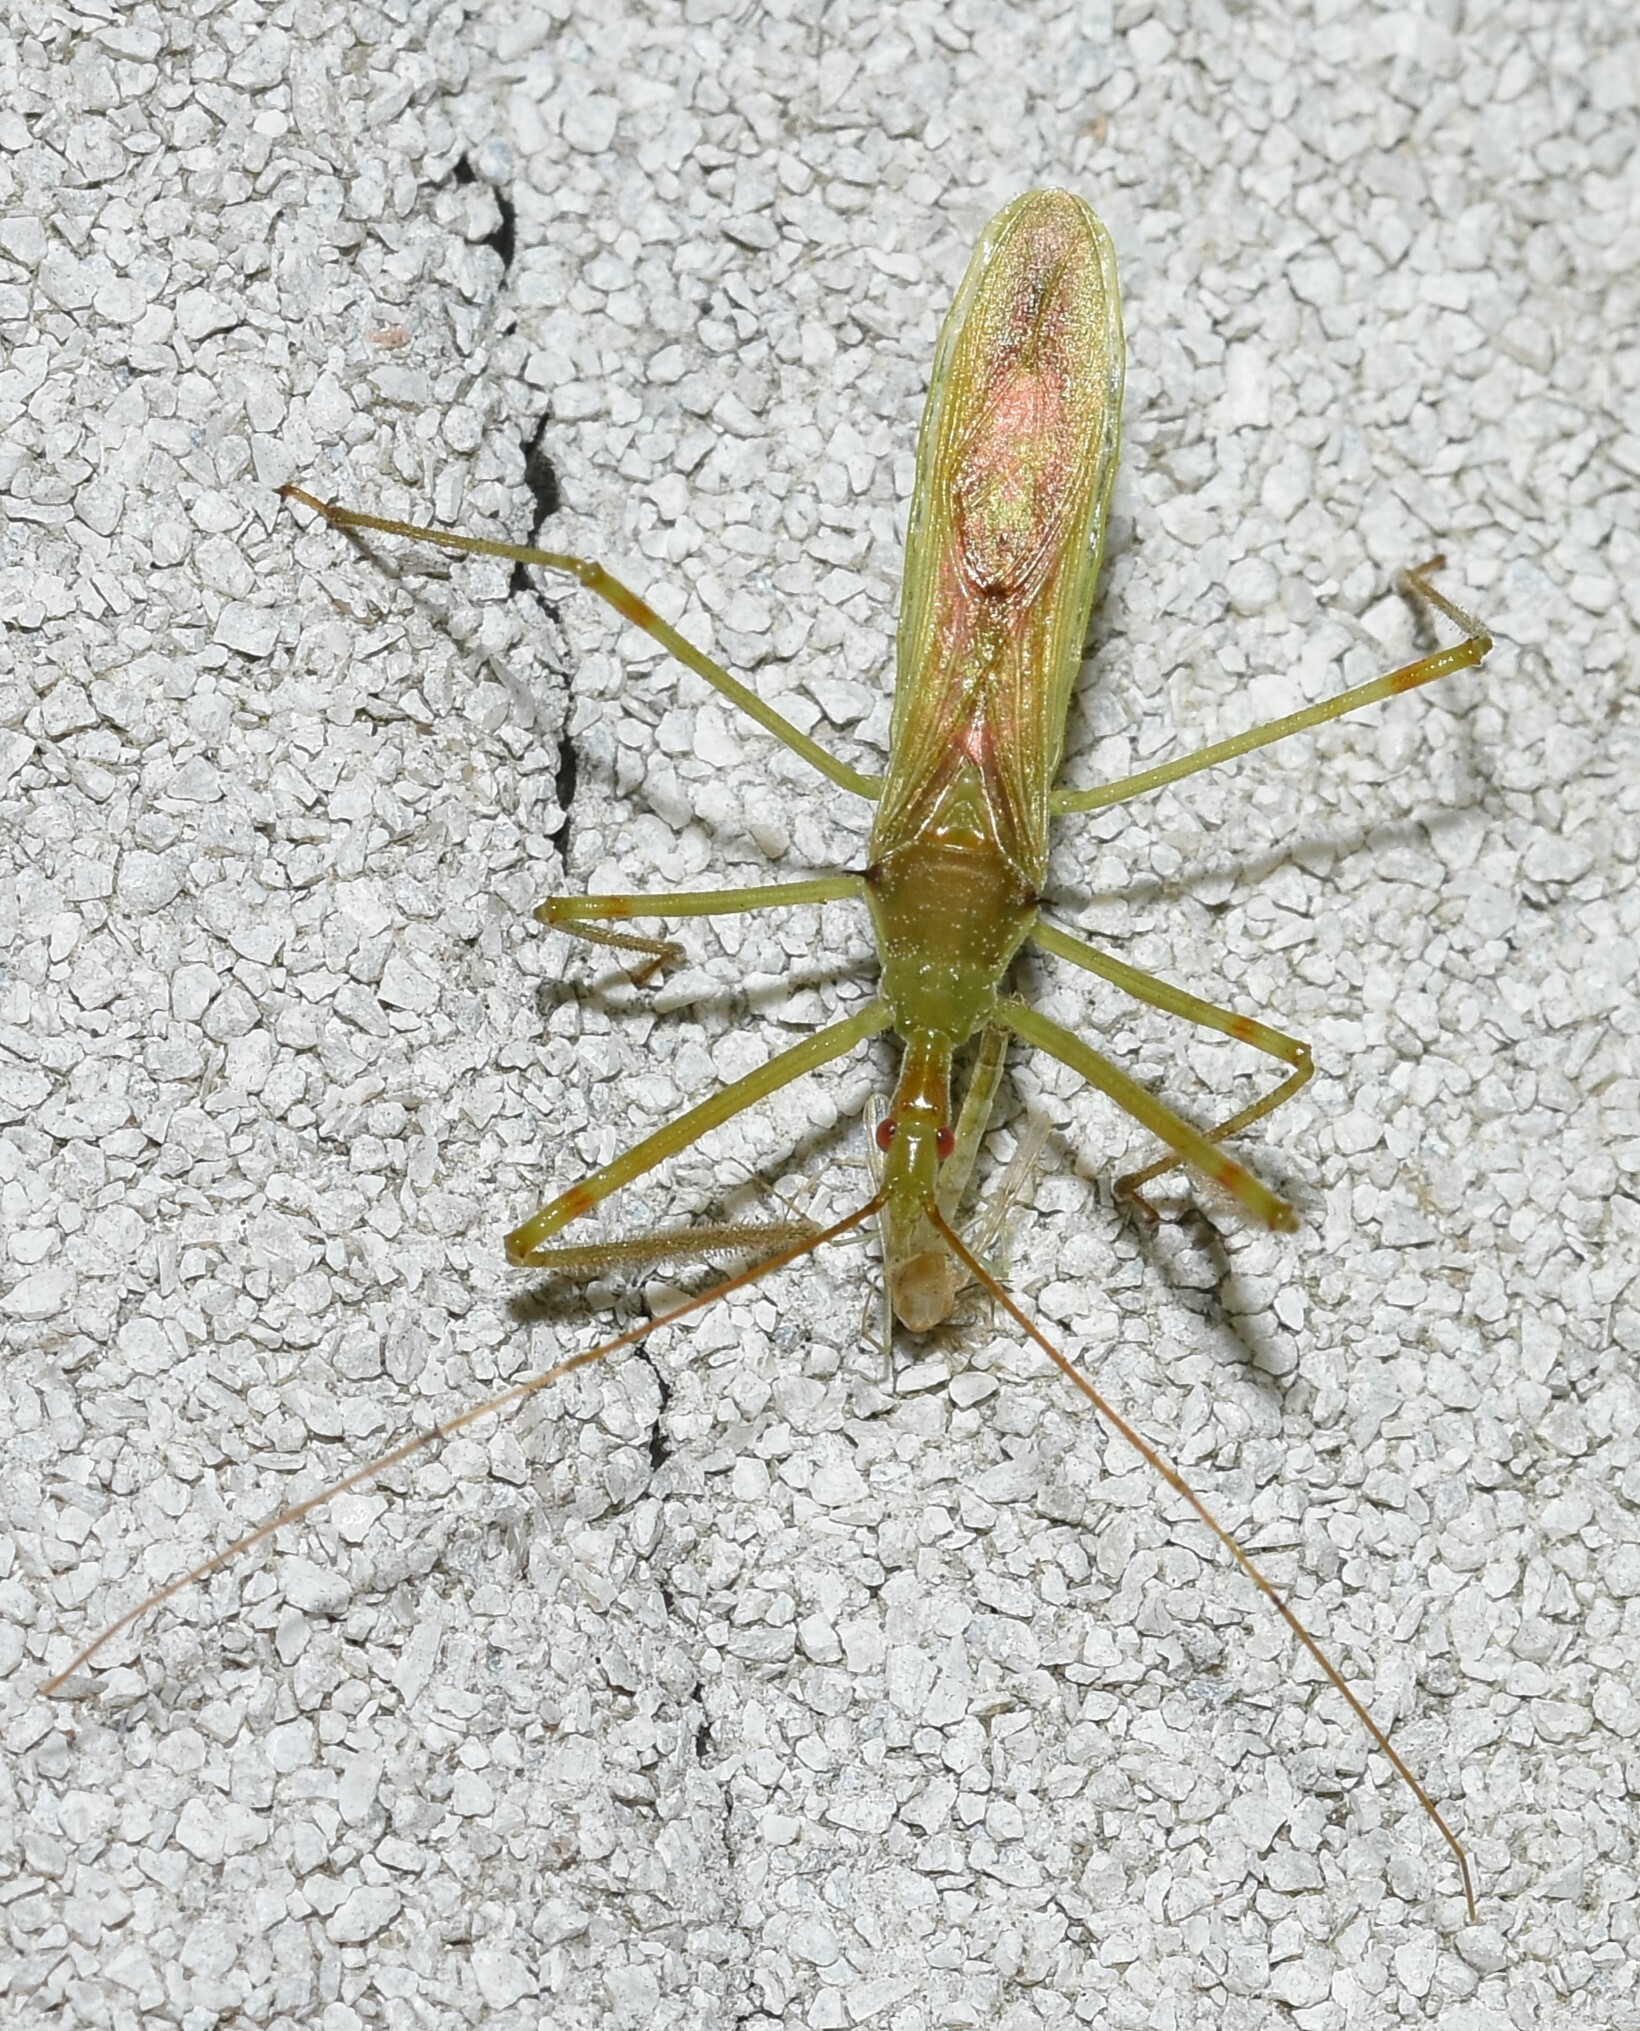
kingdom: Animalia
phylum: Arthropoda
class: Insecta
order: Hemiptera
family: Reduviidae
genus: Zelus
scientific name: Zelus luridus
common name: Pale green assassin bug
